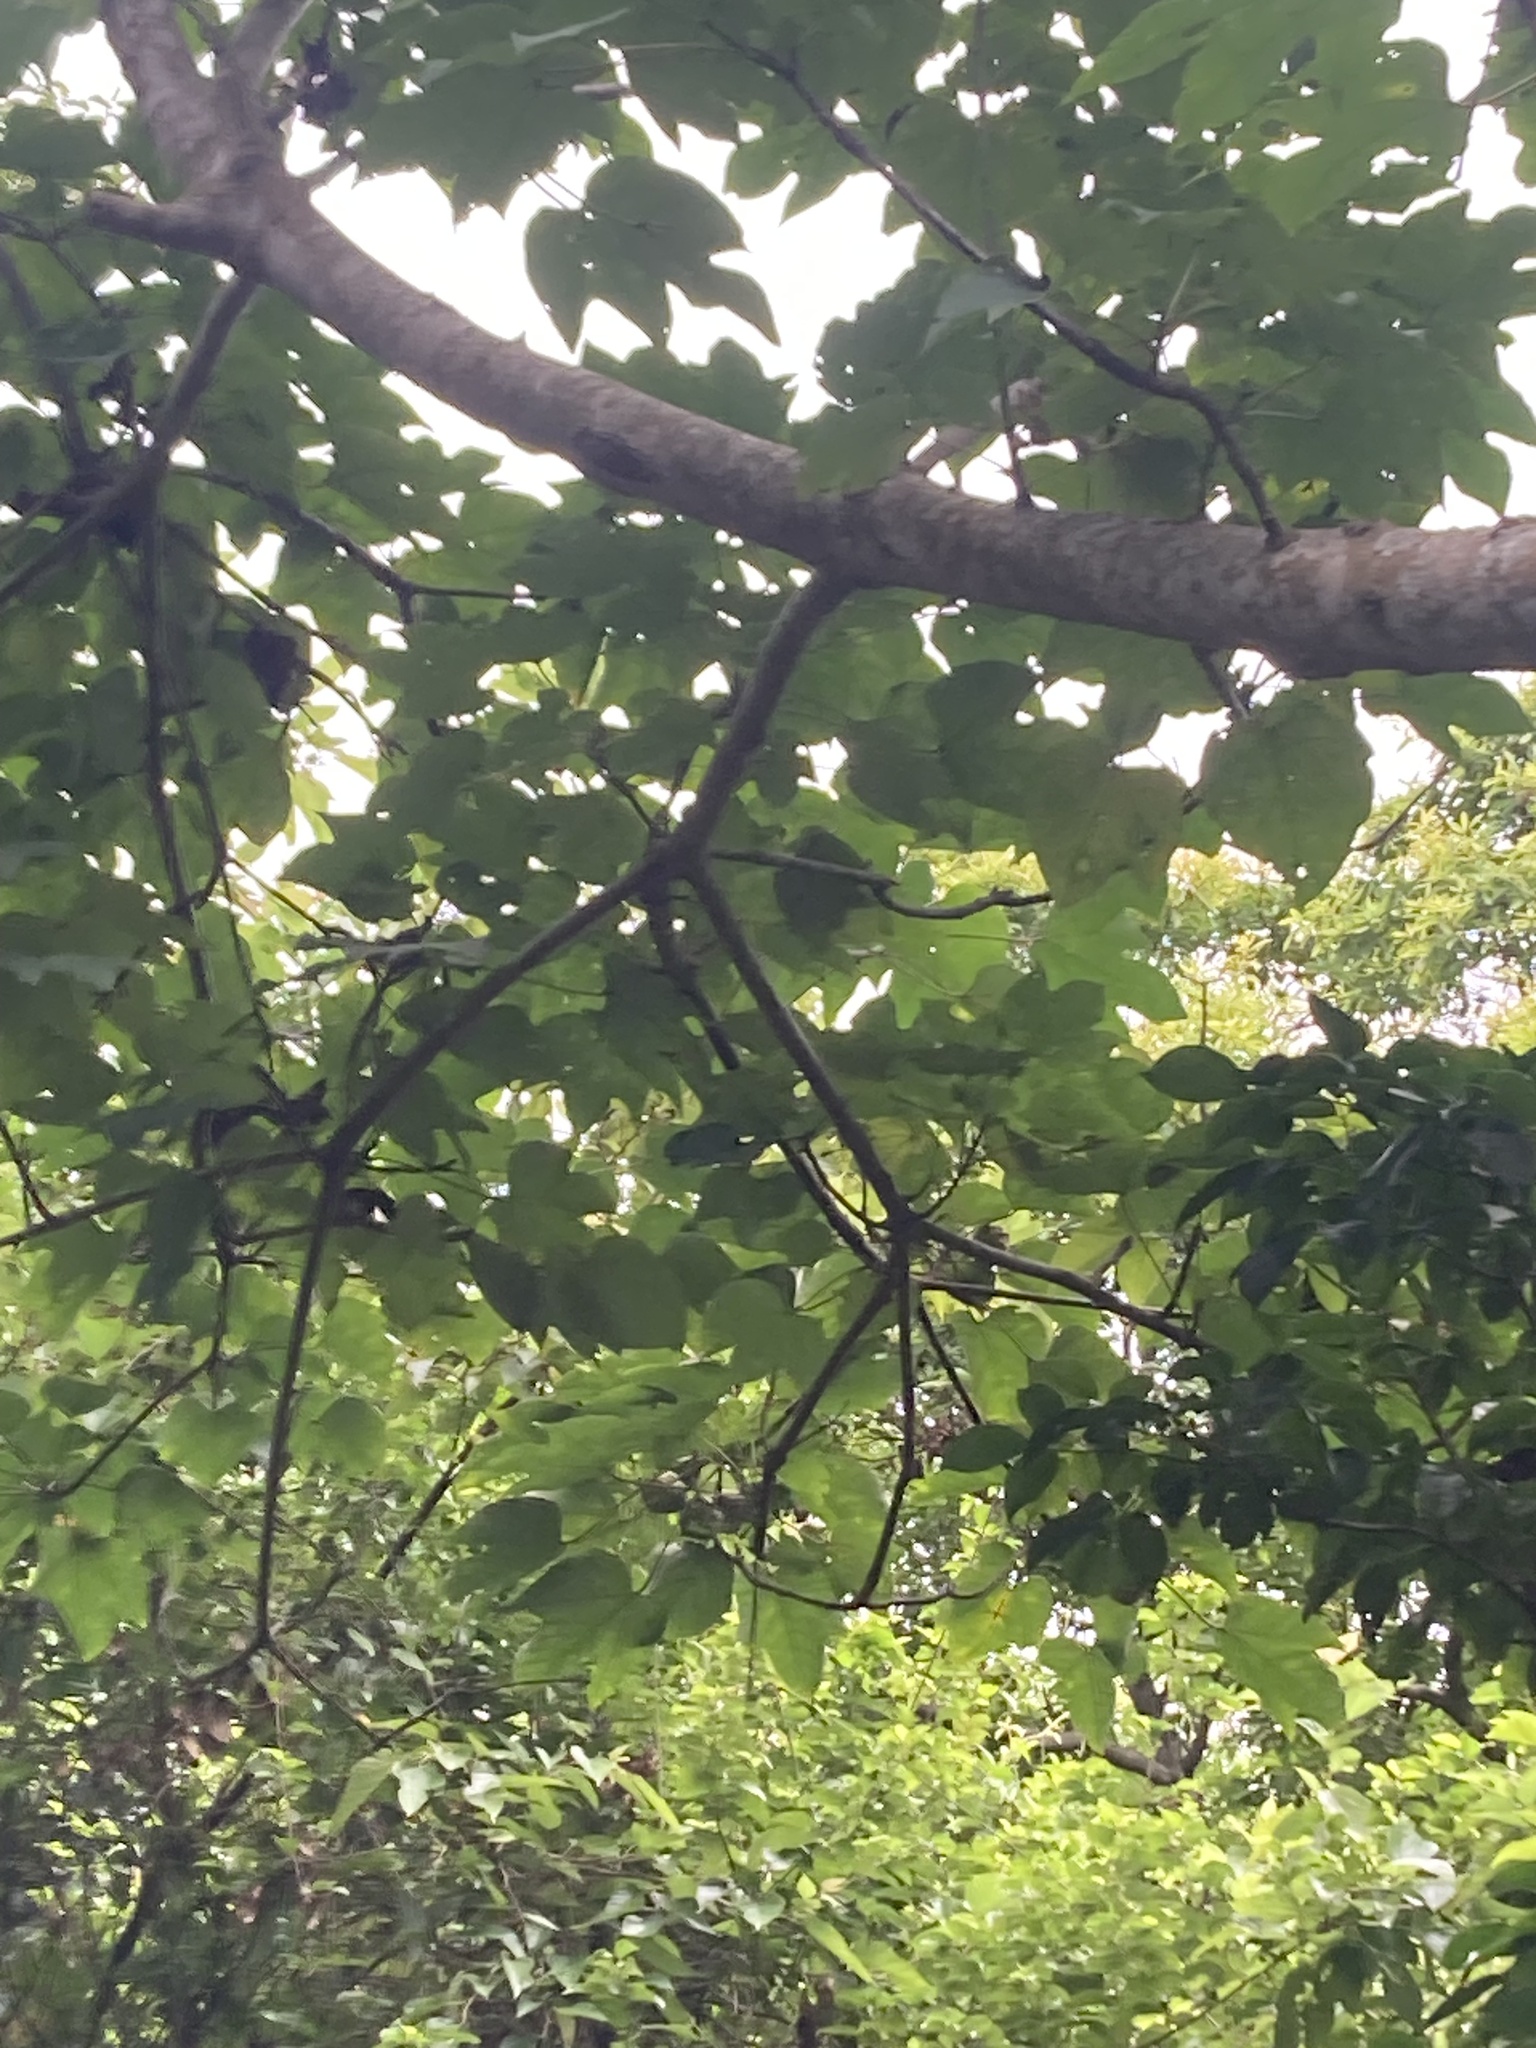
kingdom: Plantae
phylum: Tracheophyta
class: Magnoliopsida
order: Malpighiales
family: Euphorbiaceae
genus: Vernicia
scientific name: Vernicia montana
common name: Mu oil tree
